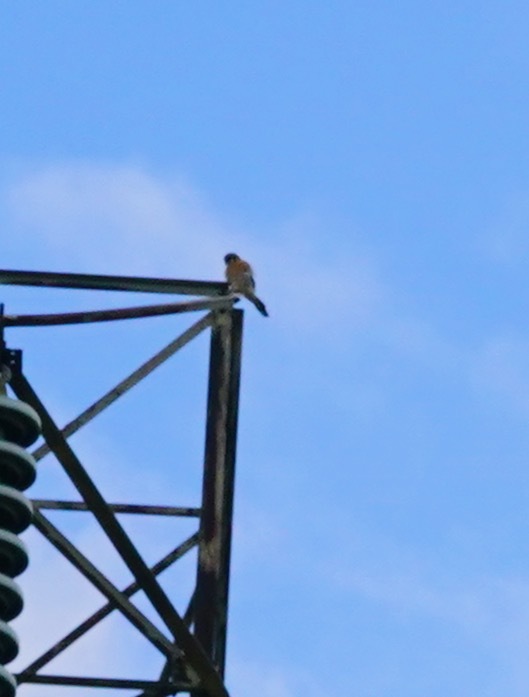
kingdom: Animalia
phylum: Chordata
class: Aves
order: Falconiformes
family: Falconidae
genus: Falco
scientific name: Falco sparverius
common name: American kestrel
